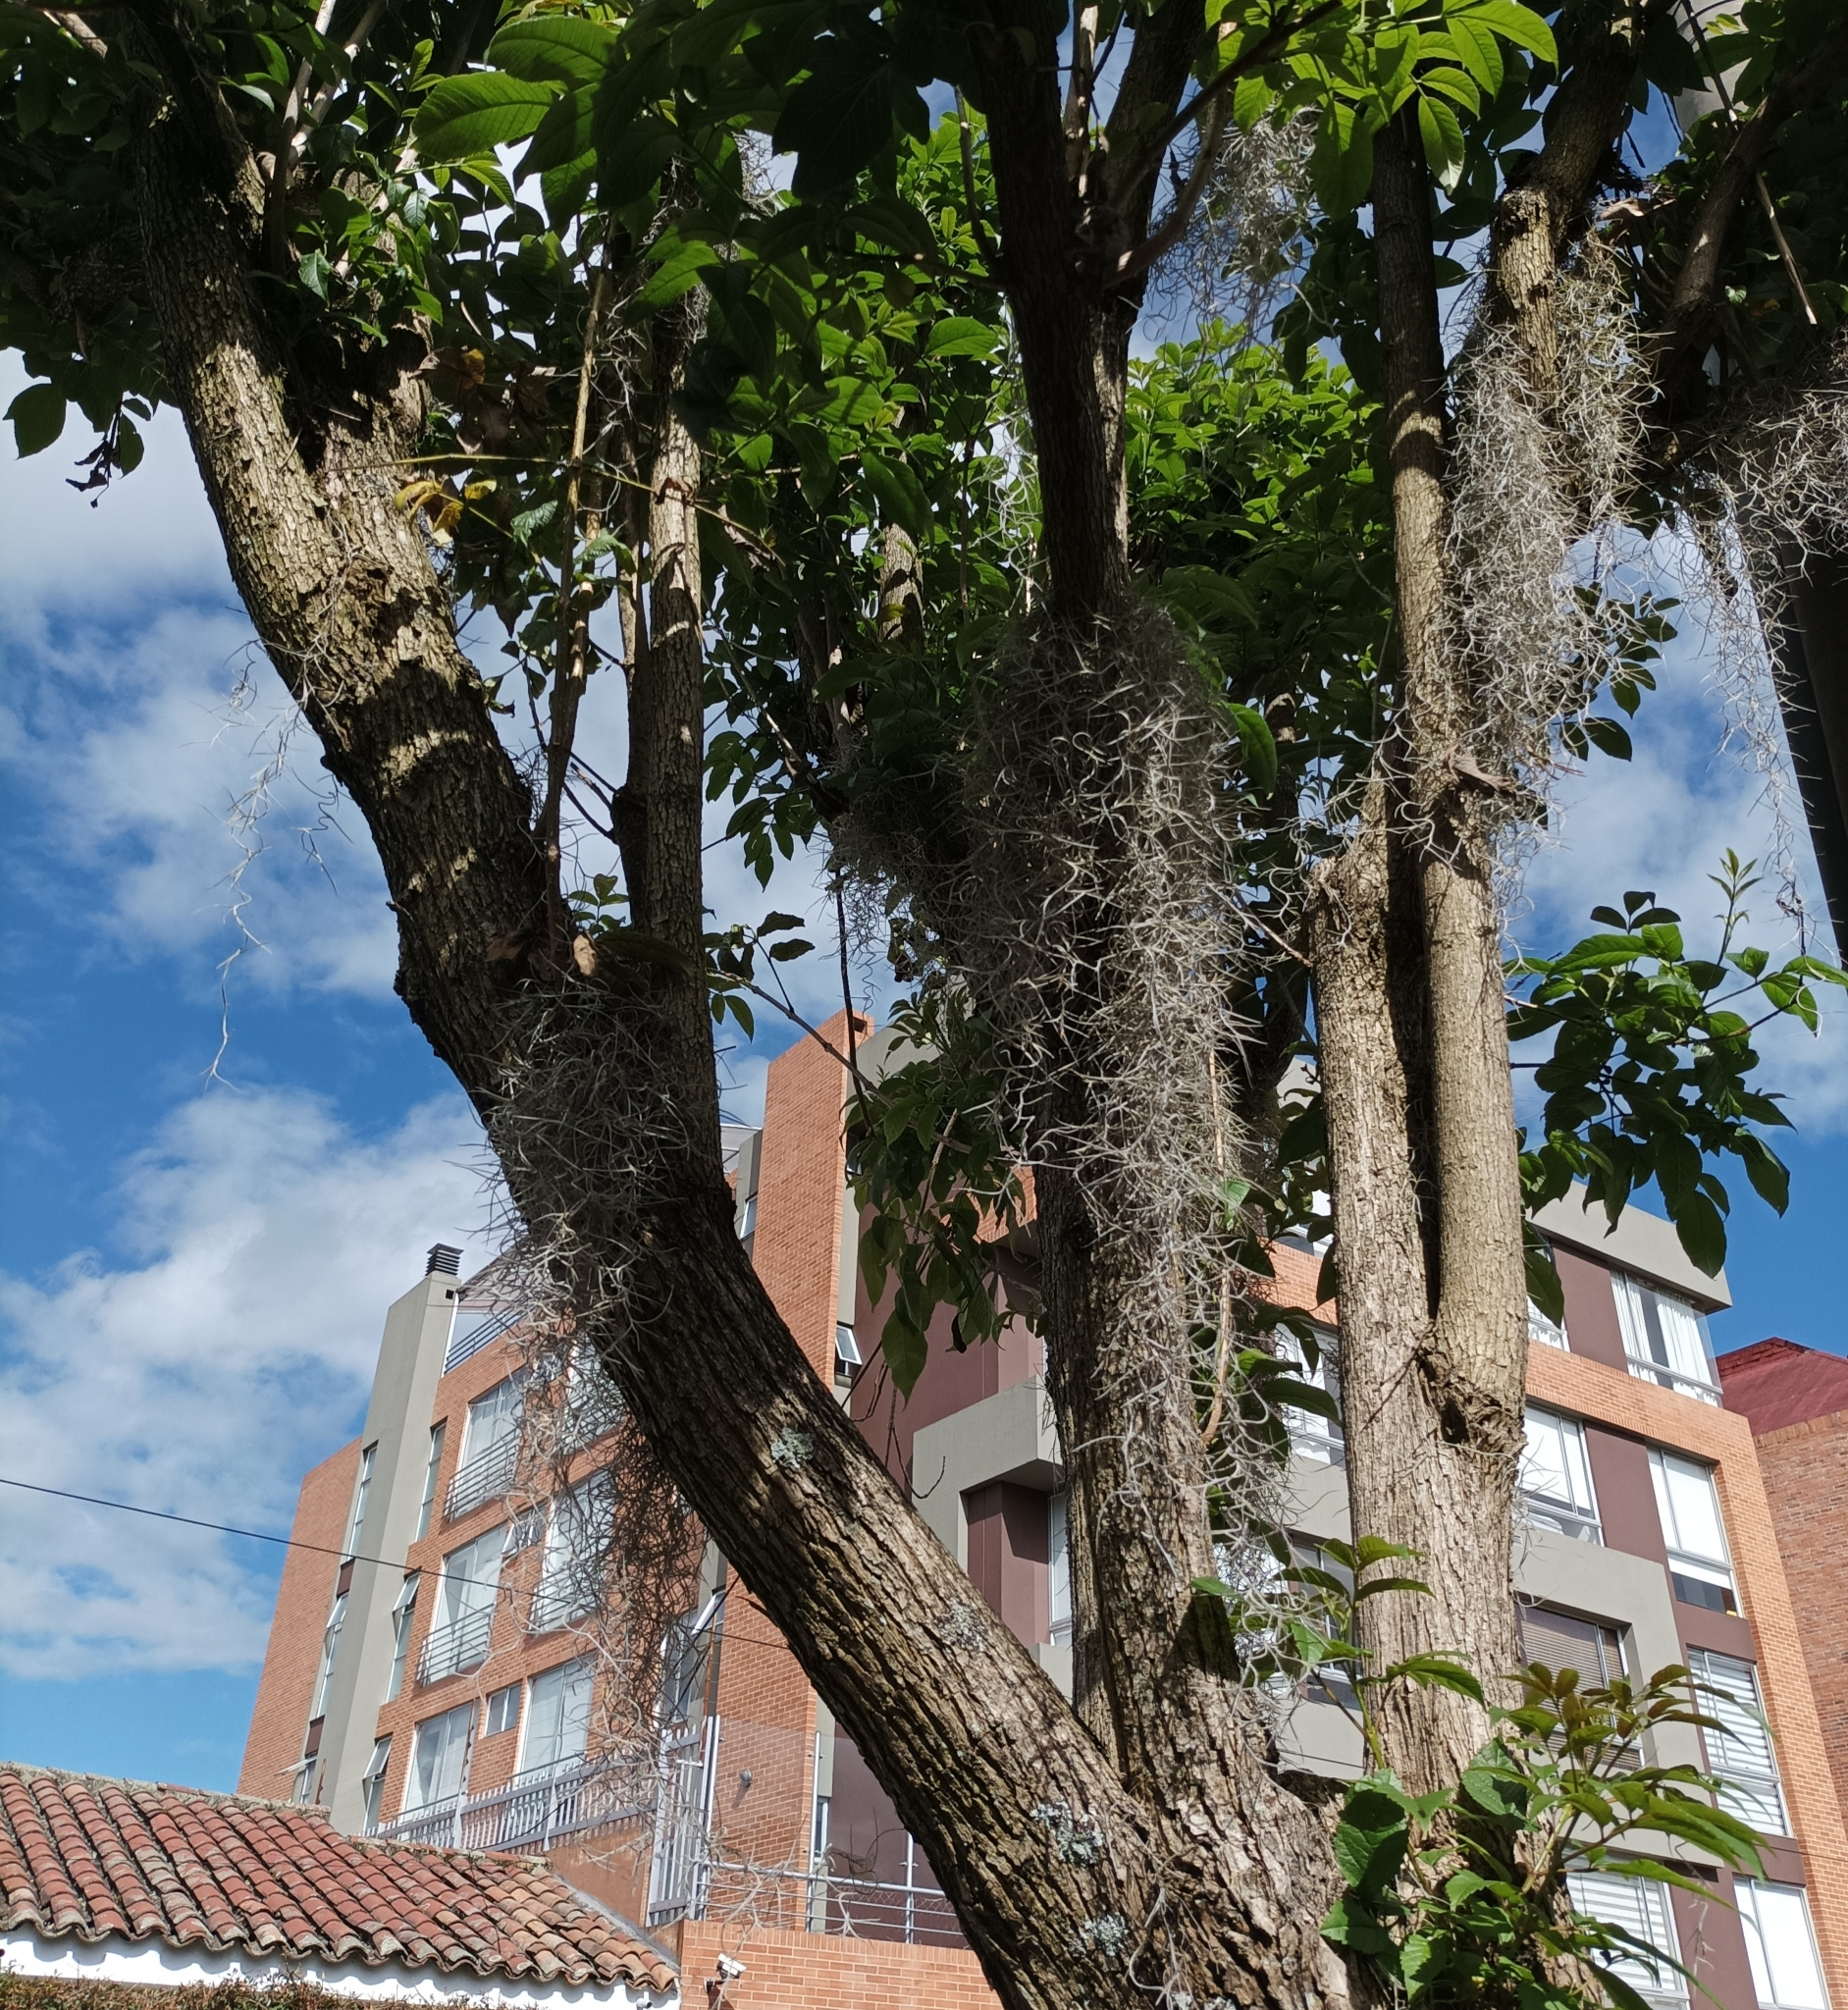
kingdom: Plantae
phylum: Tracheophyta
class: Liliopsida
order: Poales
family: Bromeliaceae
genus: Tillandsia
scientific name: Tillandsia usneoides
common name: Spanish moss
